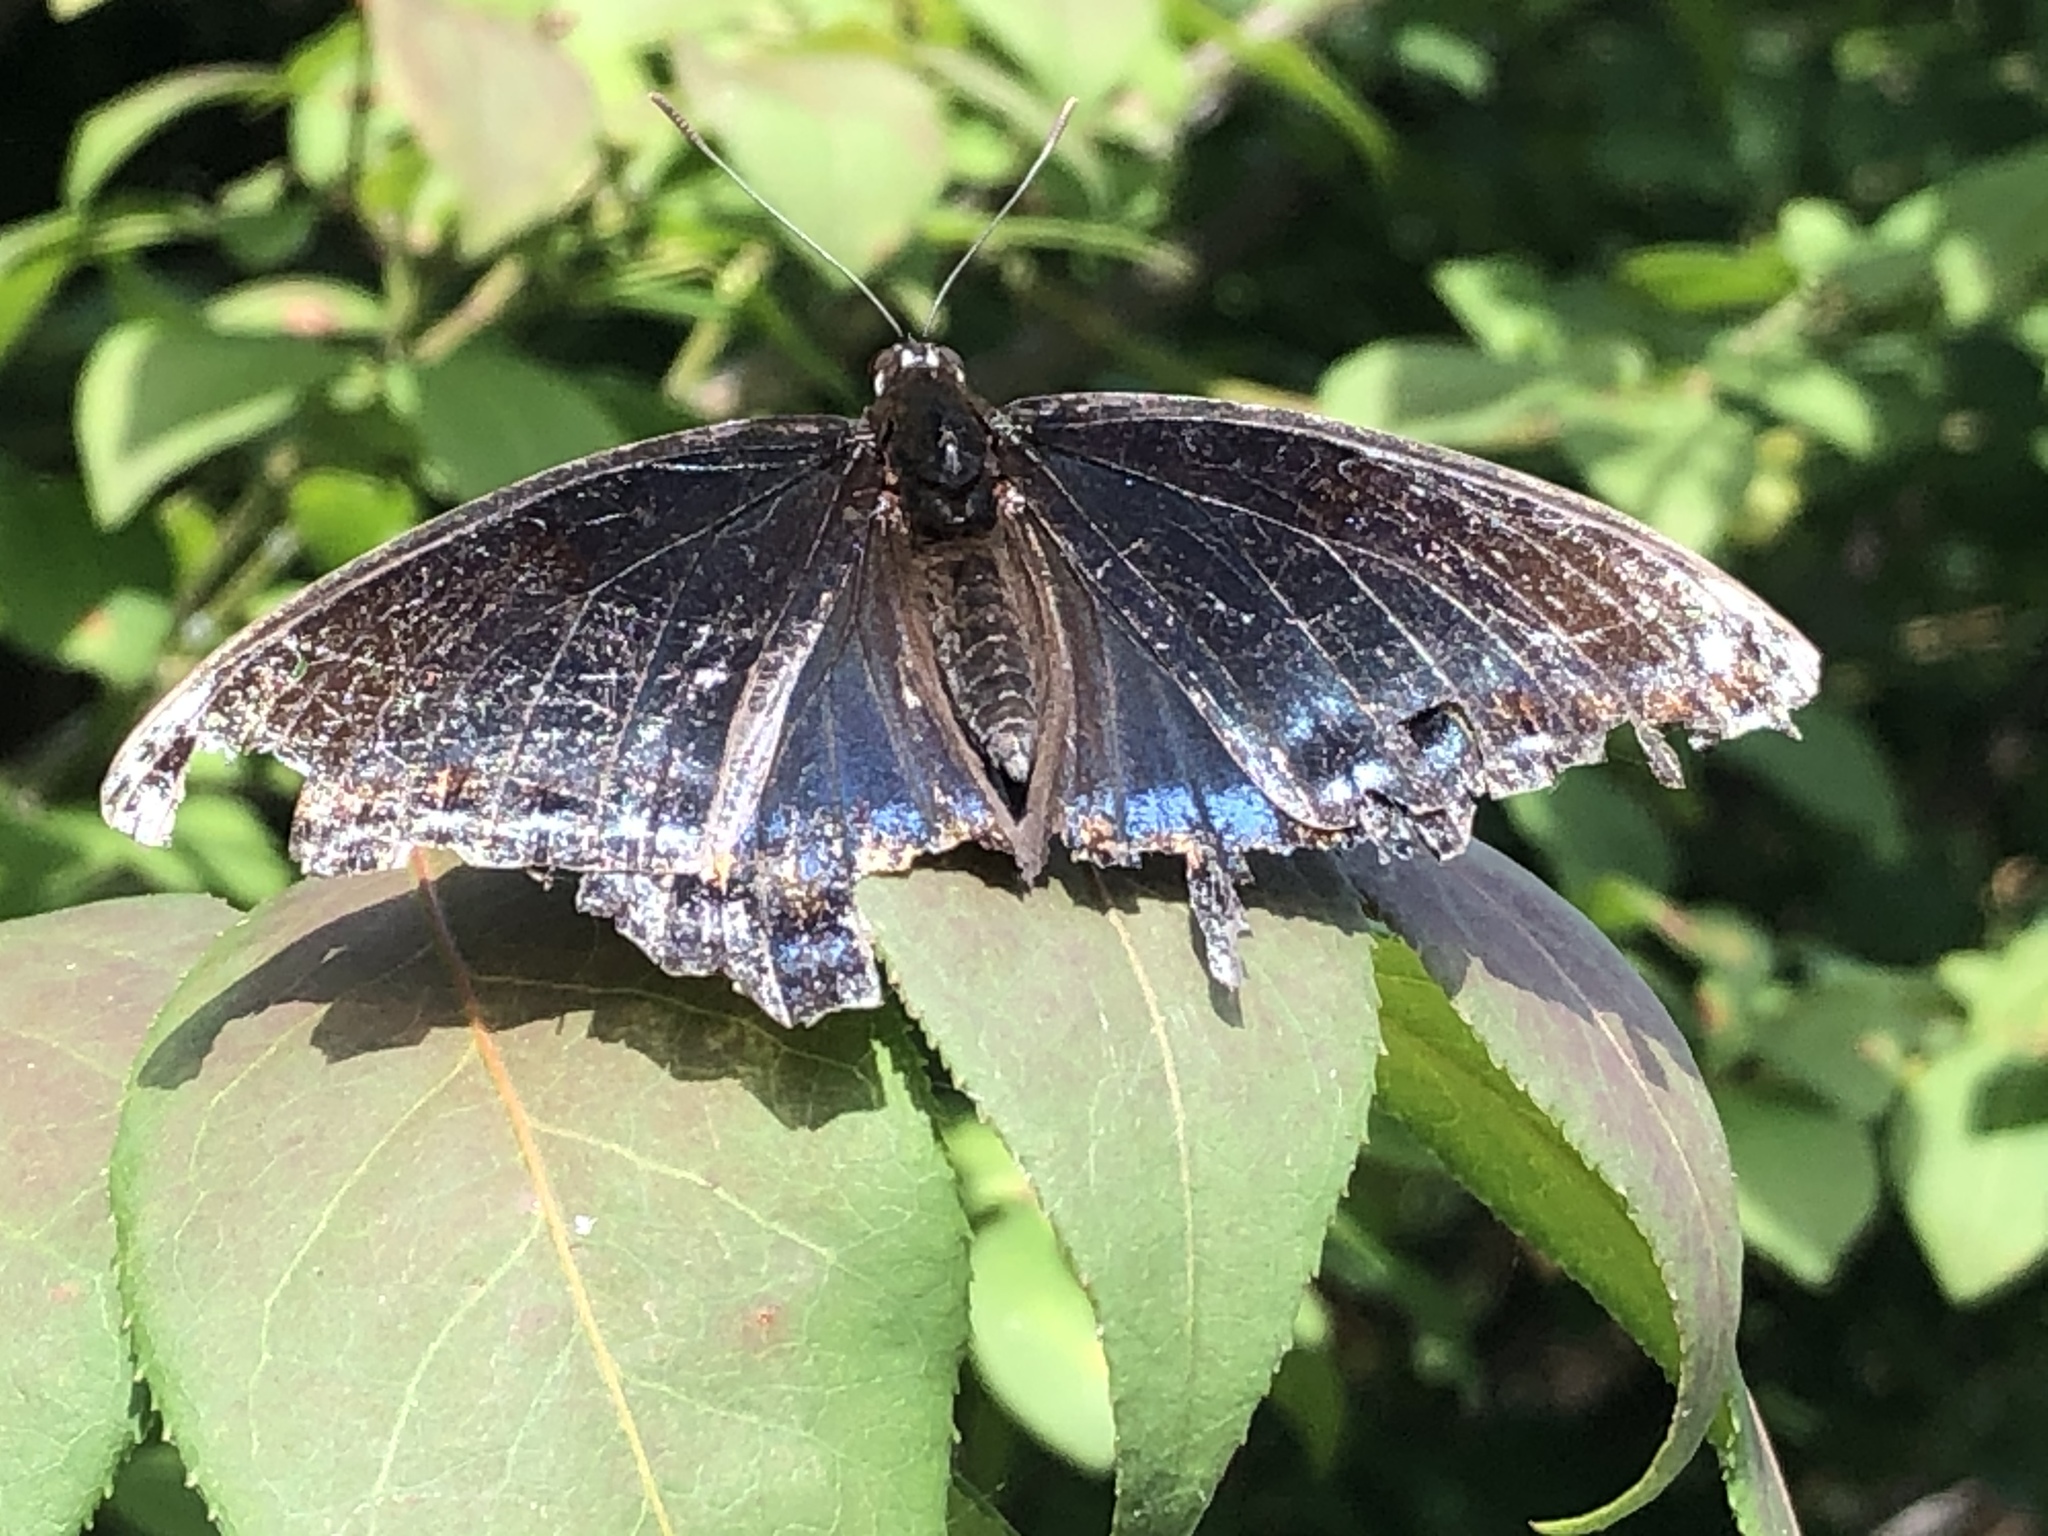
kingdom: Animalia
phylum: Arthropoda
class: Insecta
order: Lepidoptera
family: Nymphalidae
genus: Limenitis
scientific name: Limenitis arthemis
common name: Red-spotted admiral
